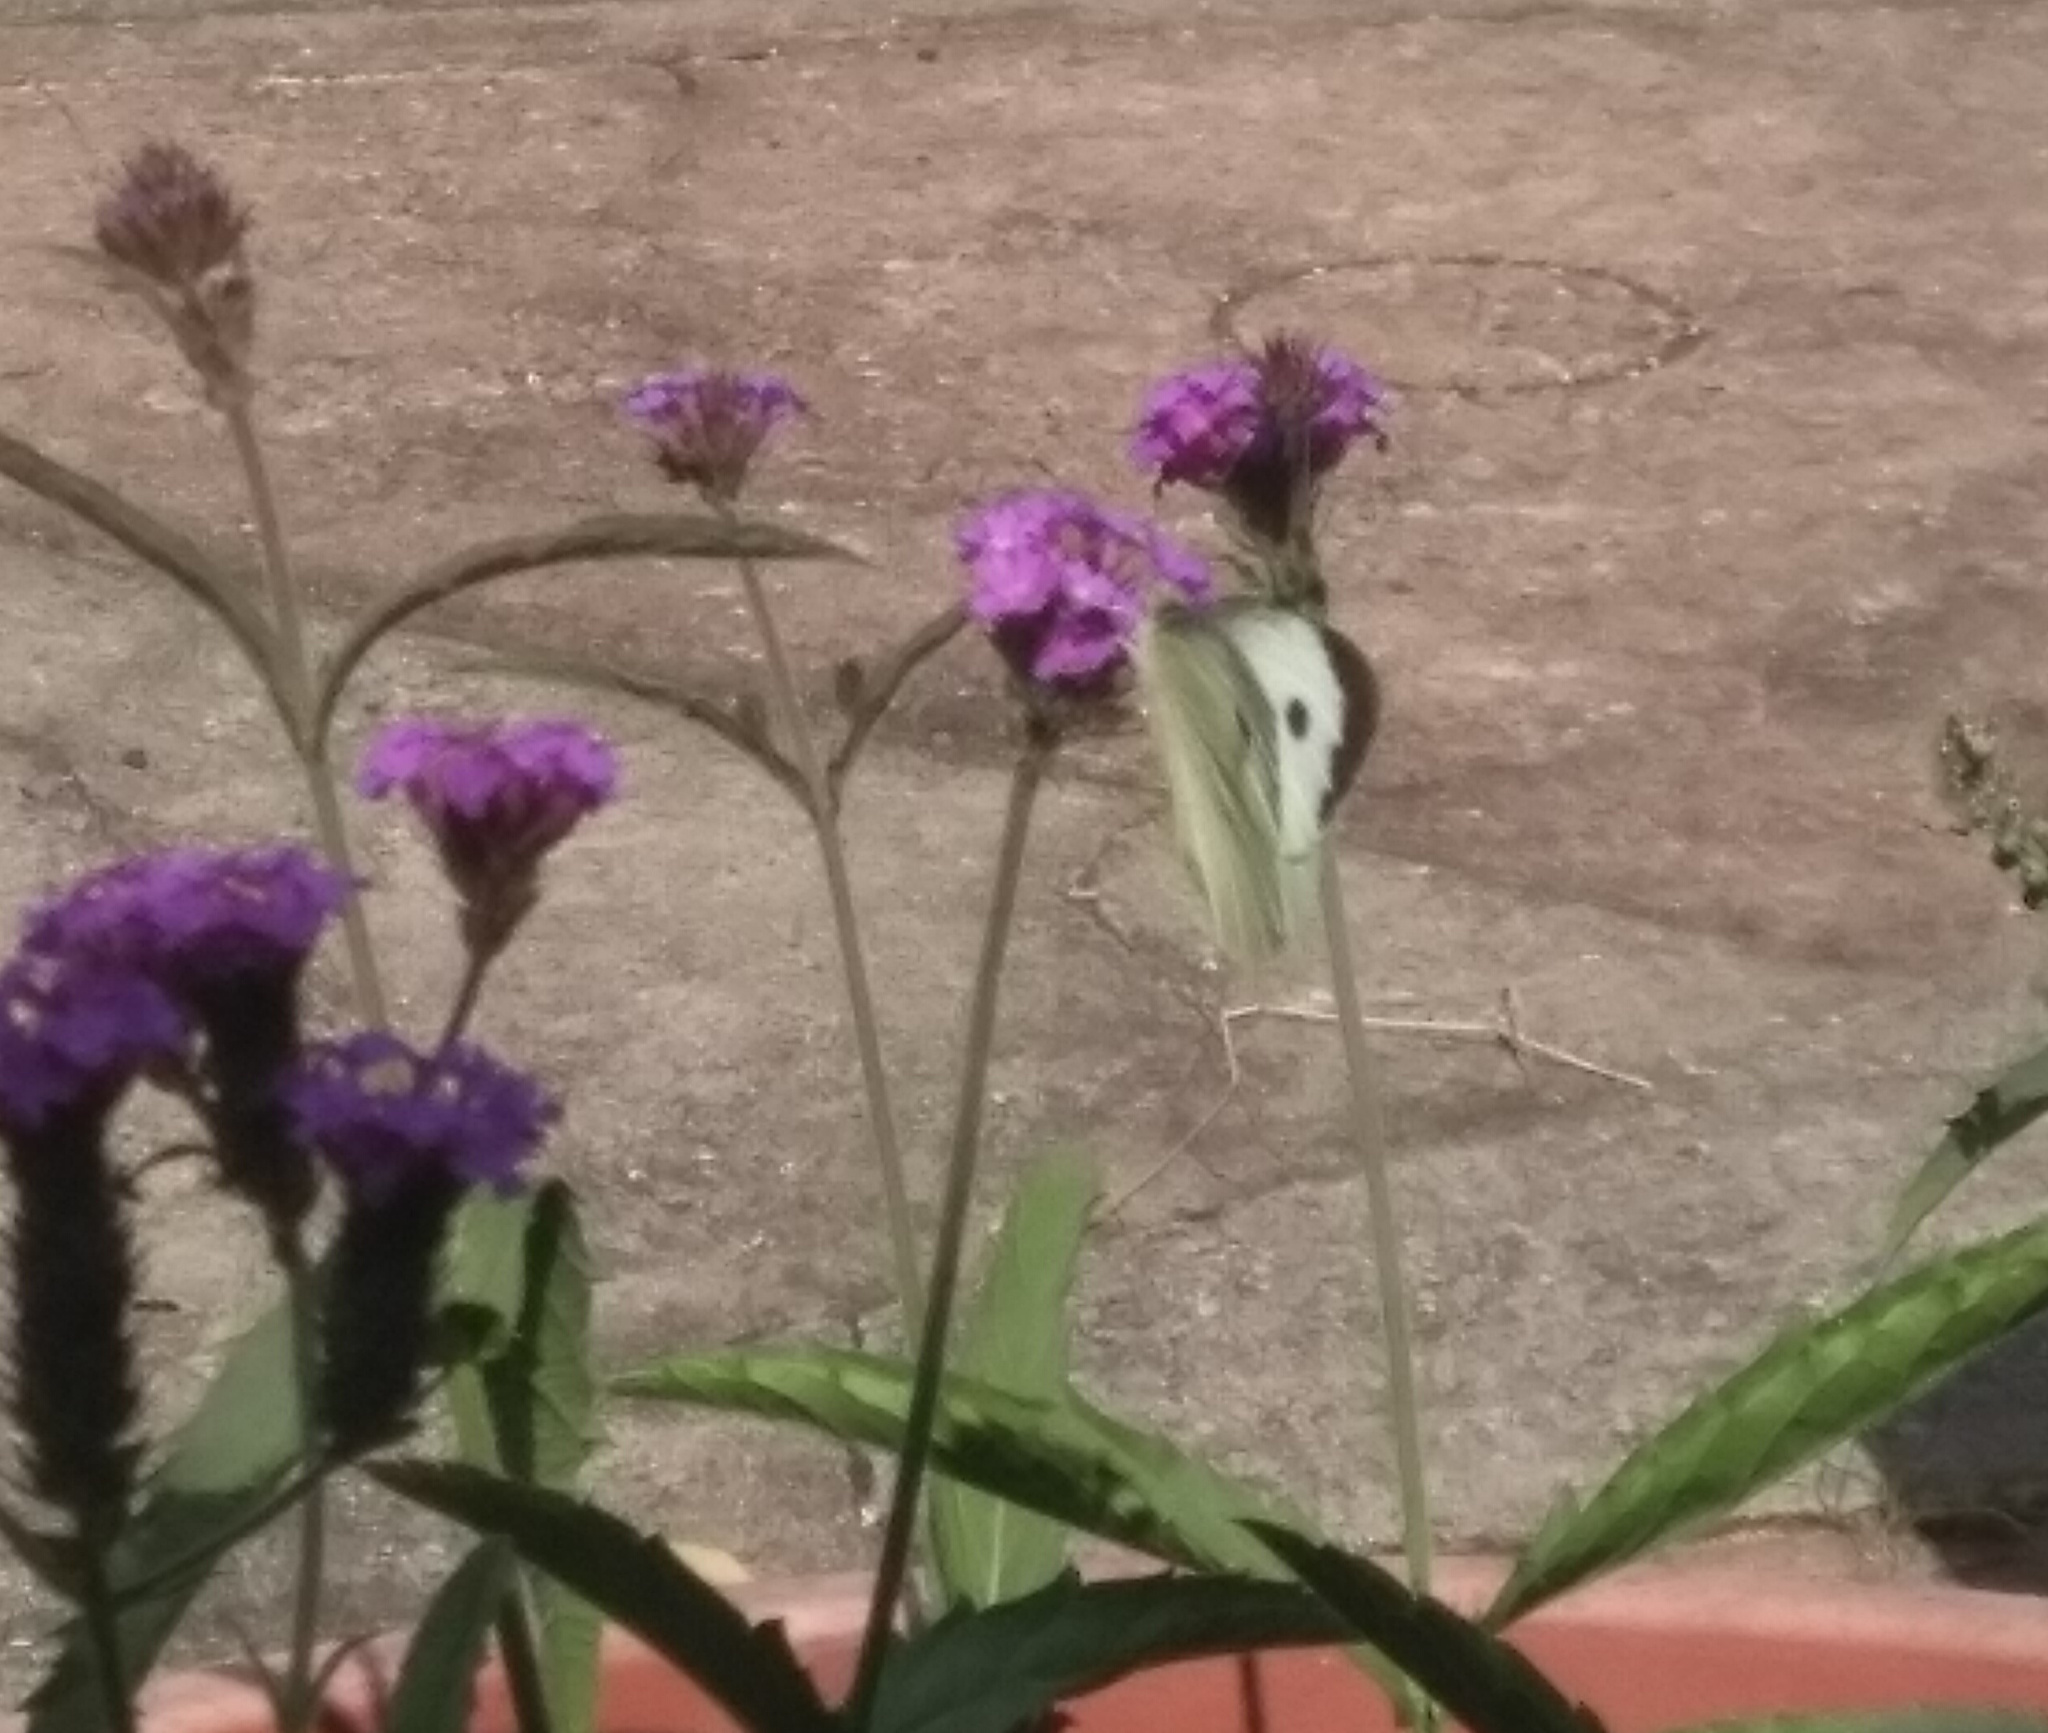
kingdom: Animalia
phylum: Arthropoda
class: Insecta
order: Lepidoptera
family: Pieridae
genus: Pieris
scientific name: Pieris brassicae
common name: Large white
